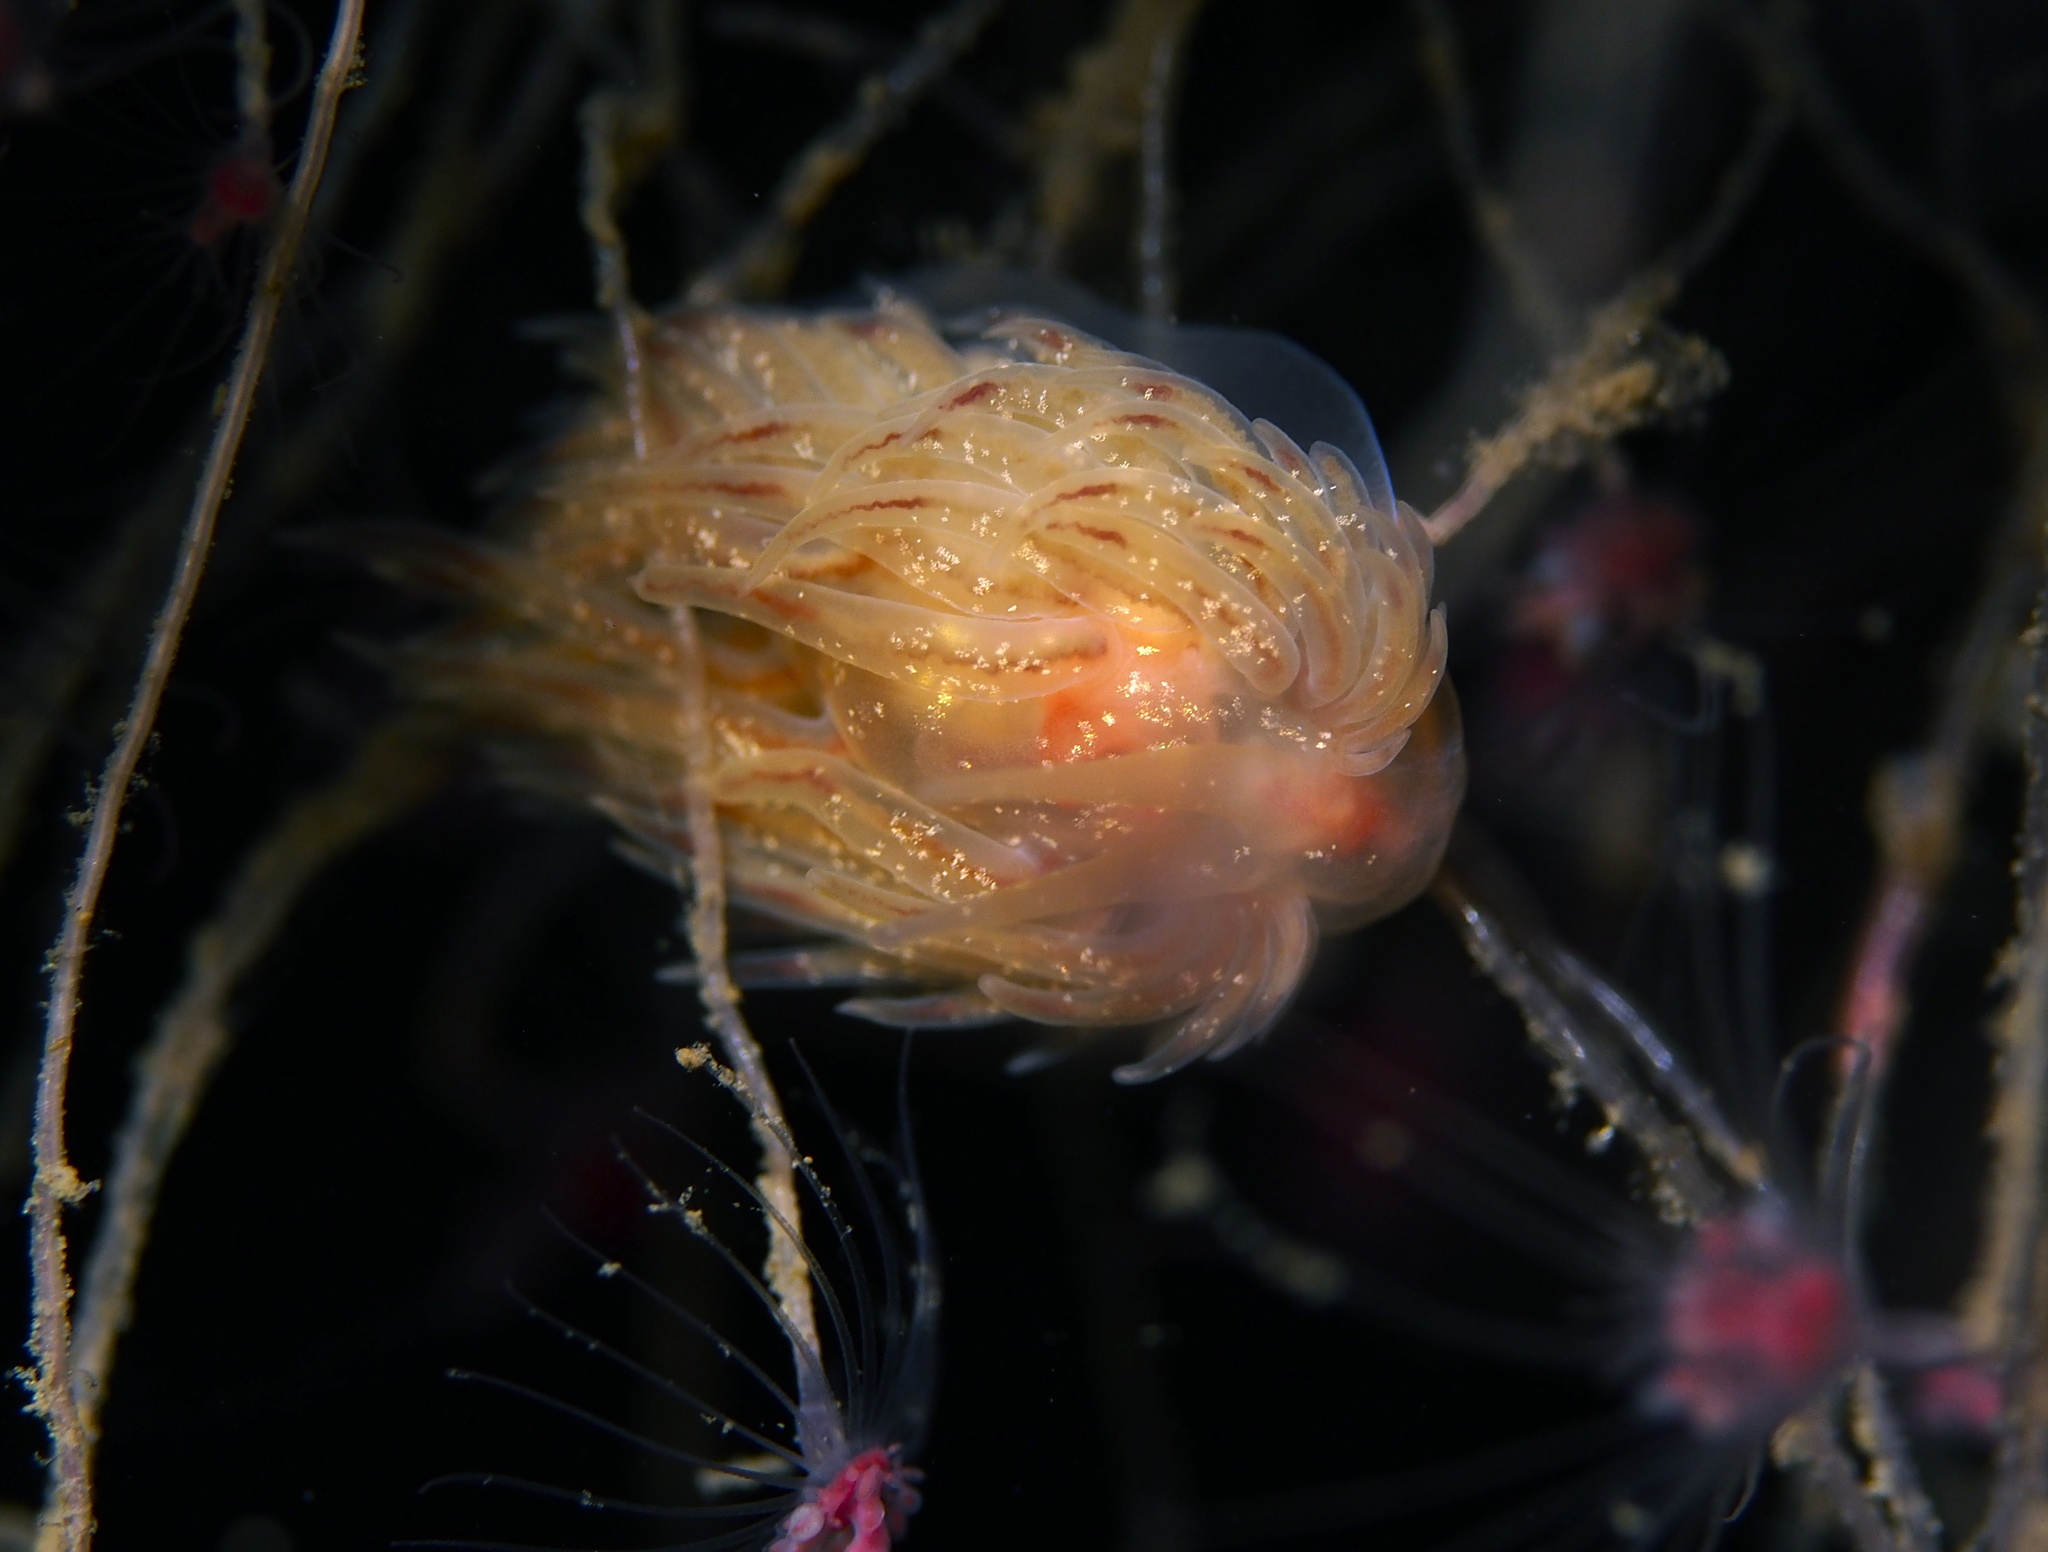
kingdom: Animalia
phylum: Mollusca
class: Gastropoda
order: Nudibranchia
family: Cumanotidae
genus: Cumanotus
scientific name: Cumanotus beaumonti
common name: Polyp aeolis
